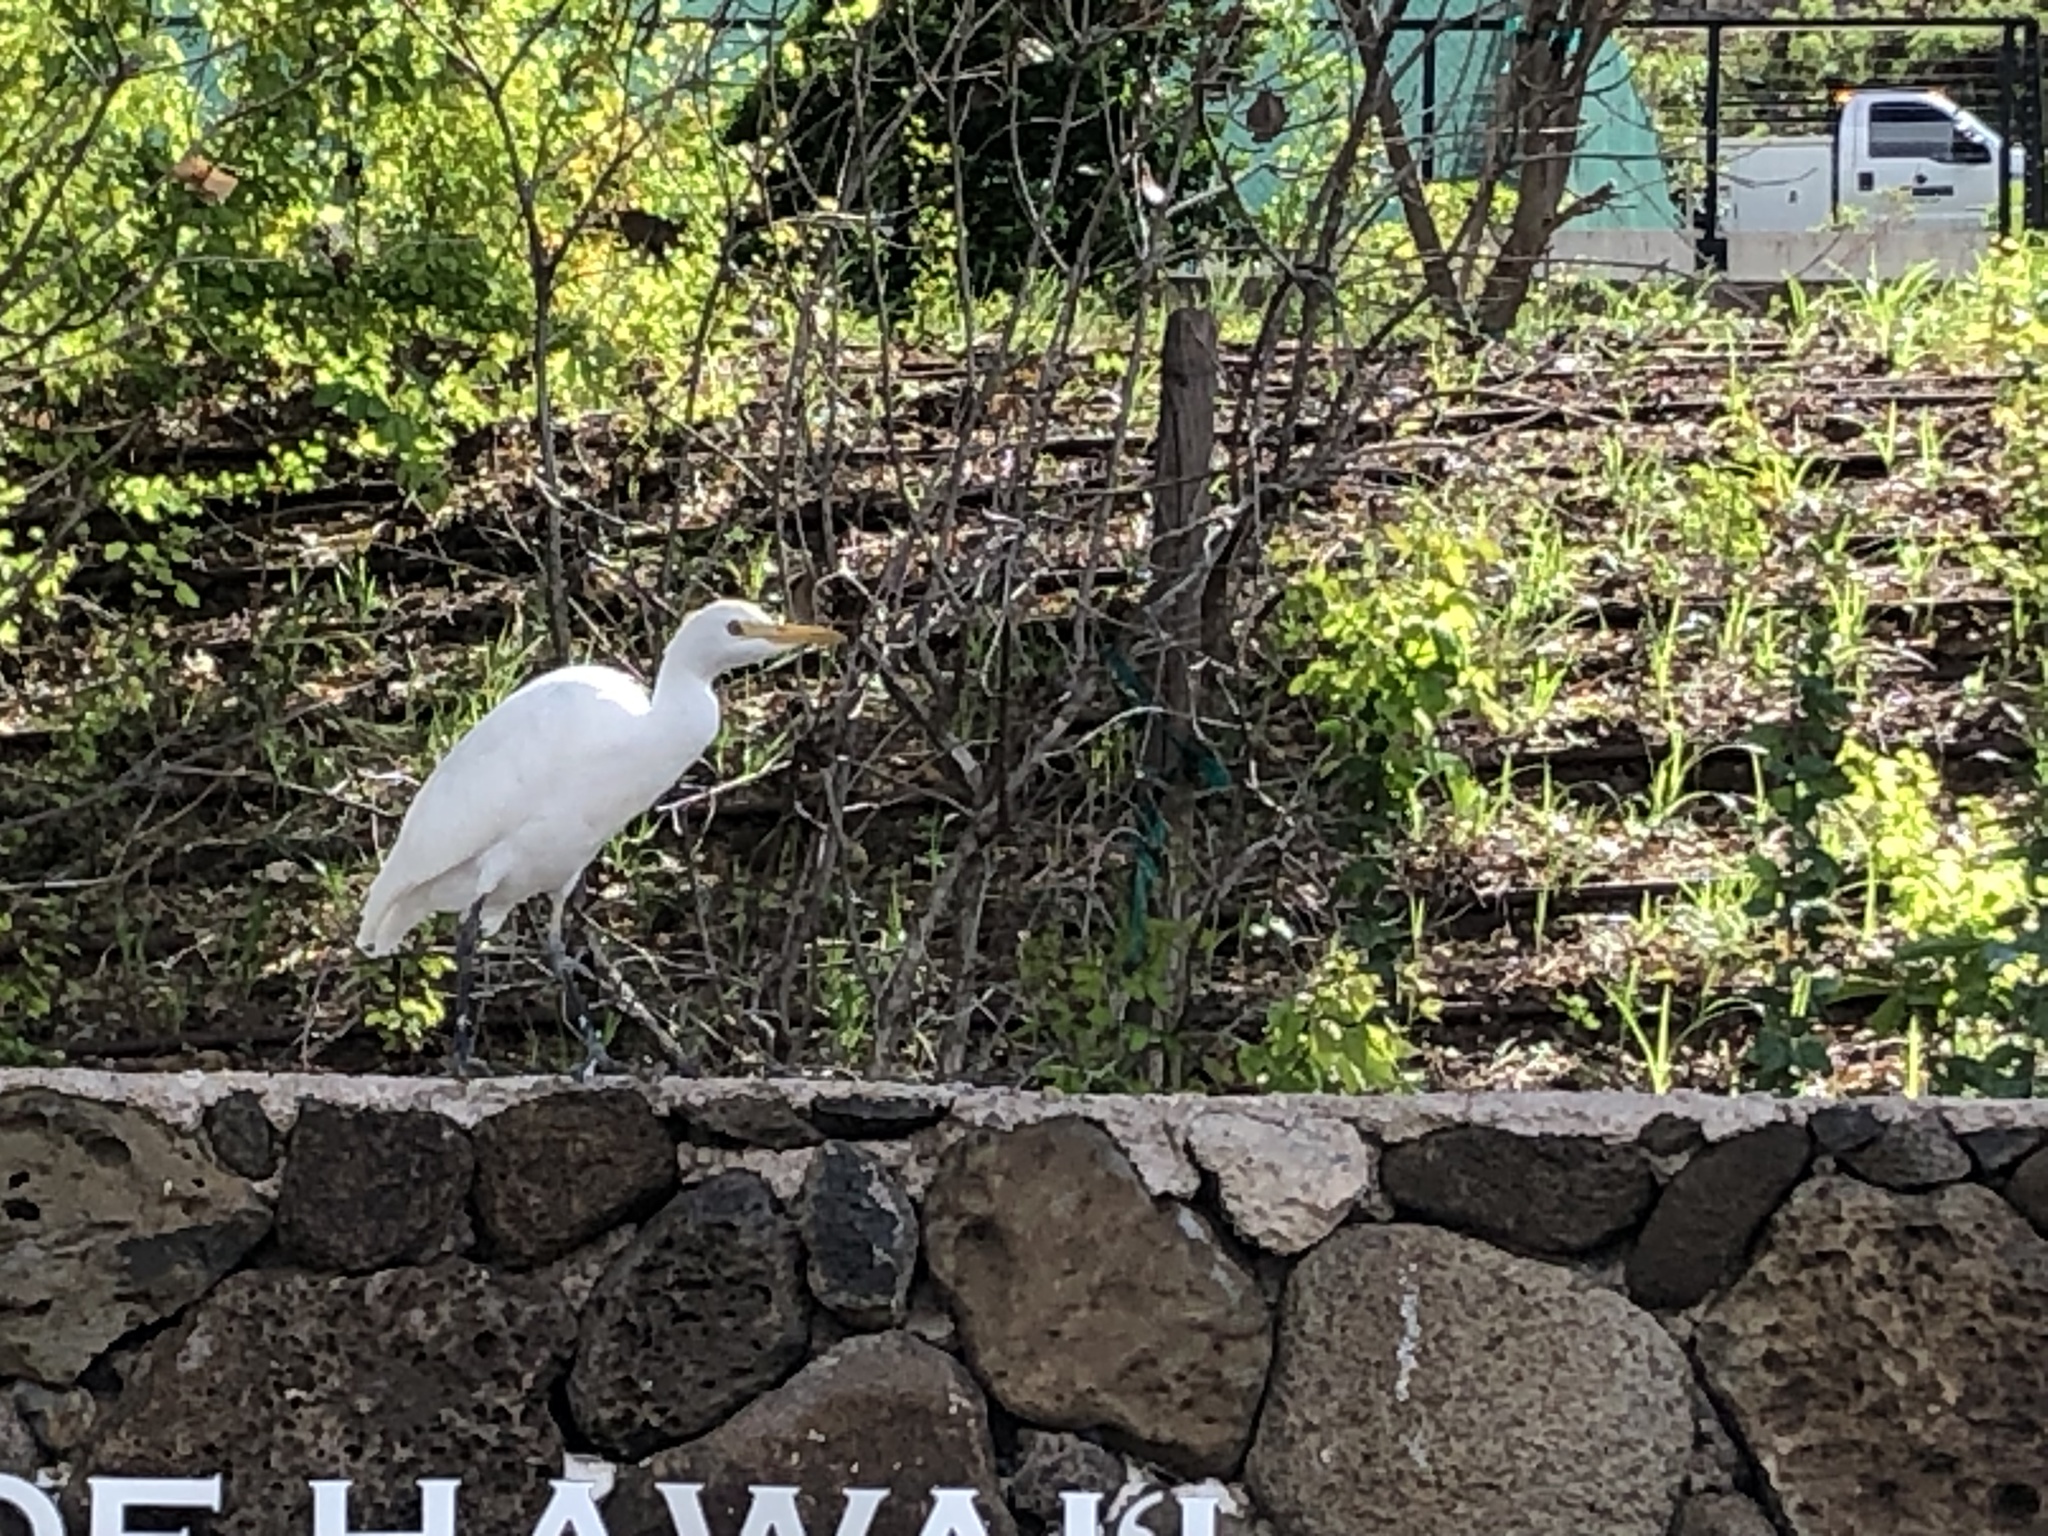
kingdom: Animalia
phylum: Chordata
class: Aves
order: Pelecaniformes
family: Ardeidae
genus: Bubulcus
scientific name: Bubulcus ibis
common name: Cattle egret
